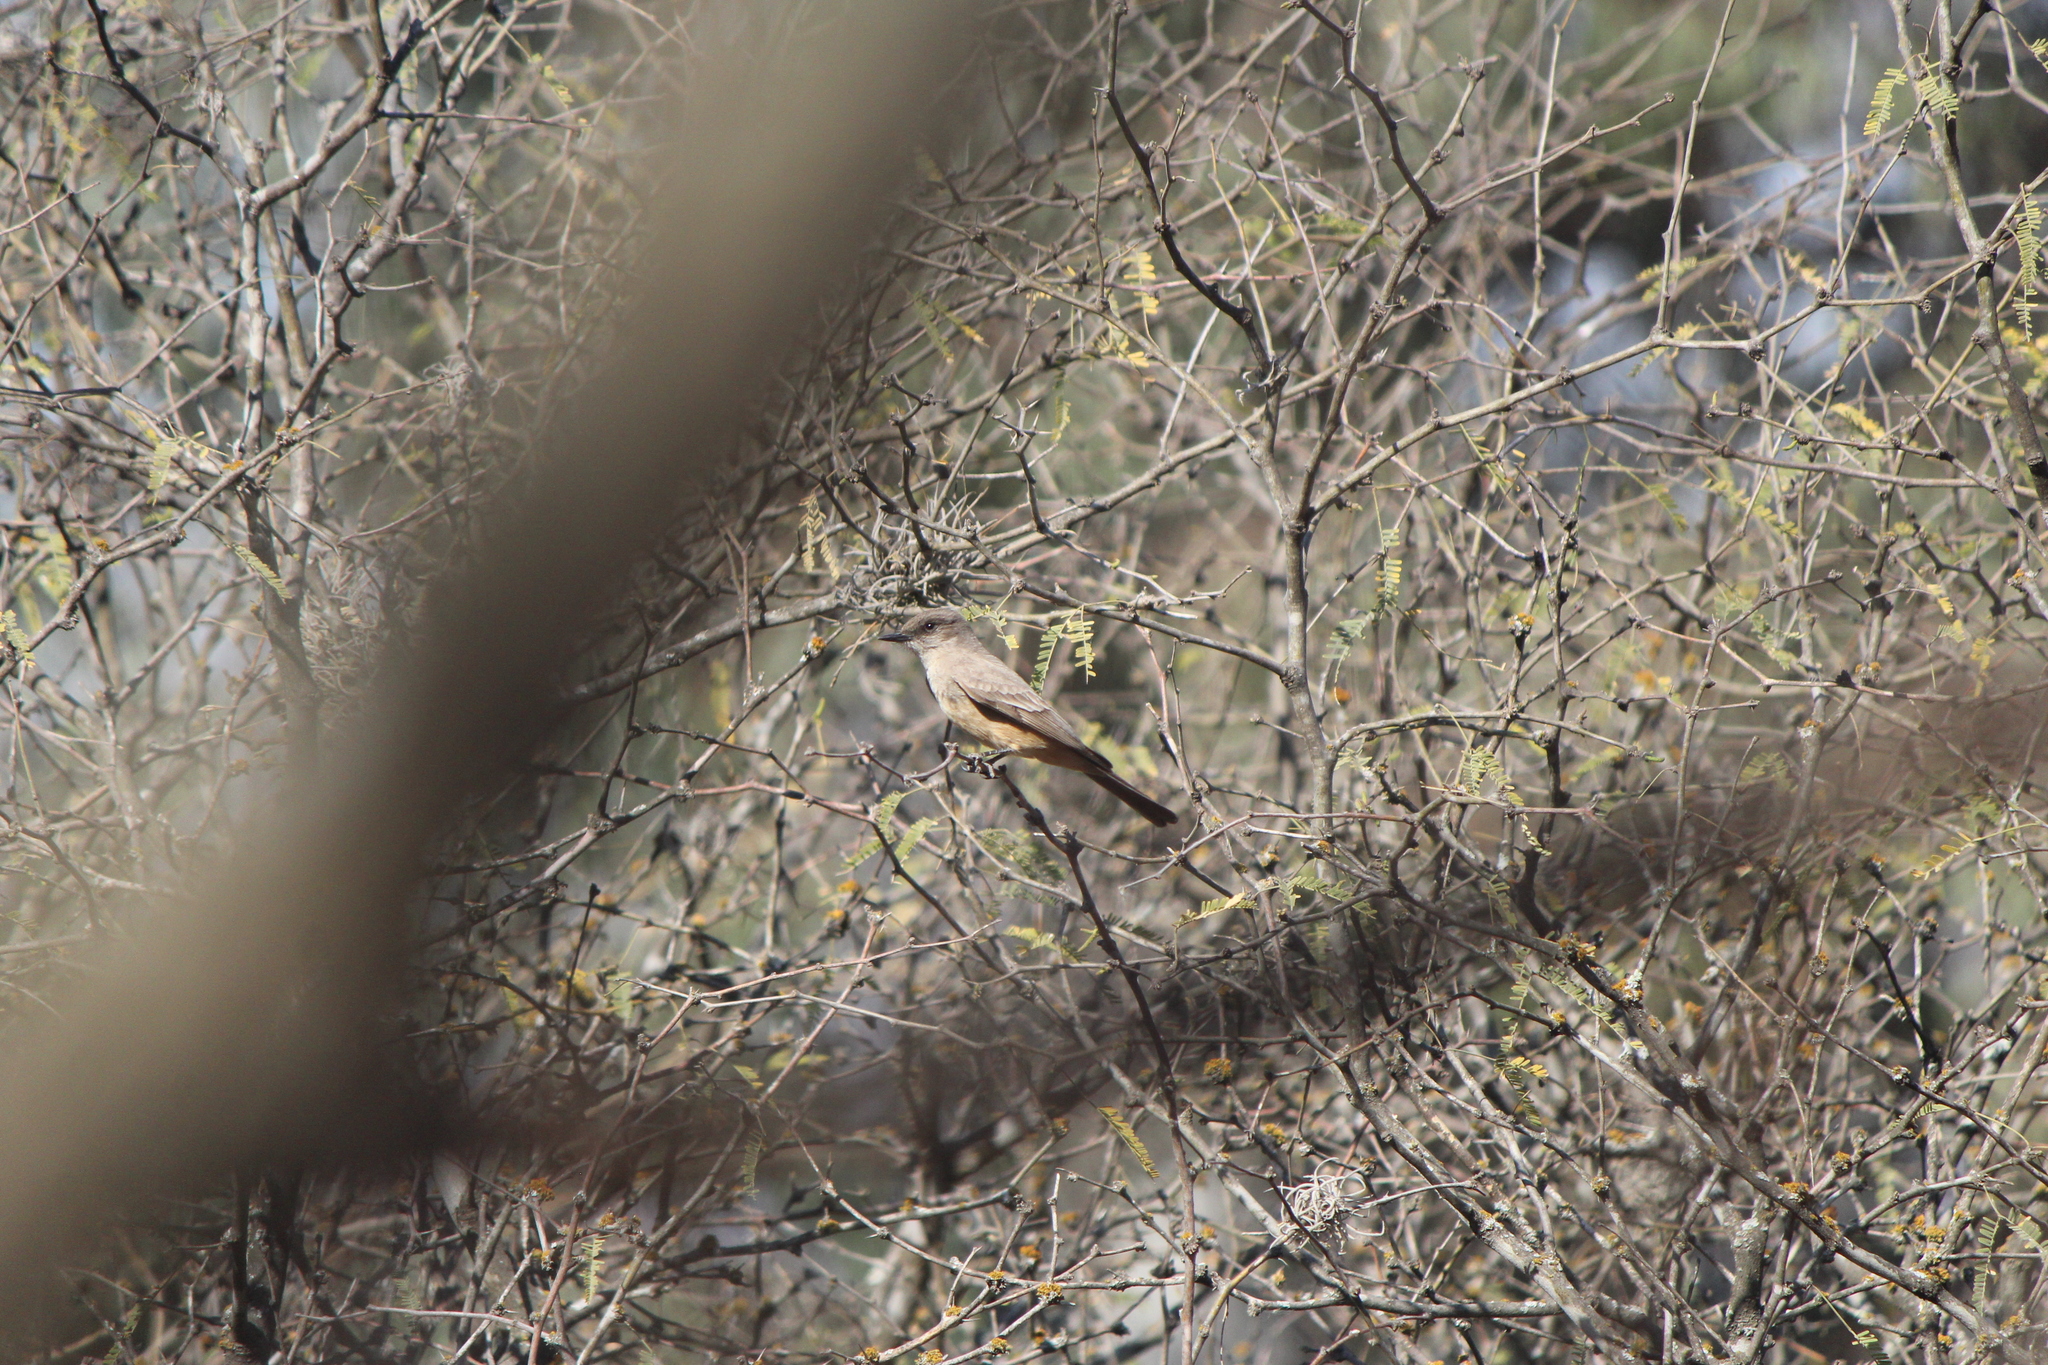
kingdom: Animalia
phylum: Chordata
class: Aves
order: Passeriformes
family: Tyrannidae
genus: Sayornis
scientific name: Sayornis saya
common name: Say's phoebe
